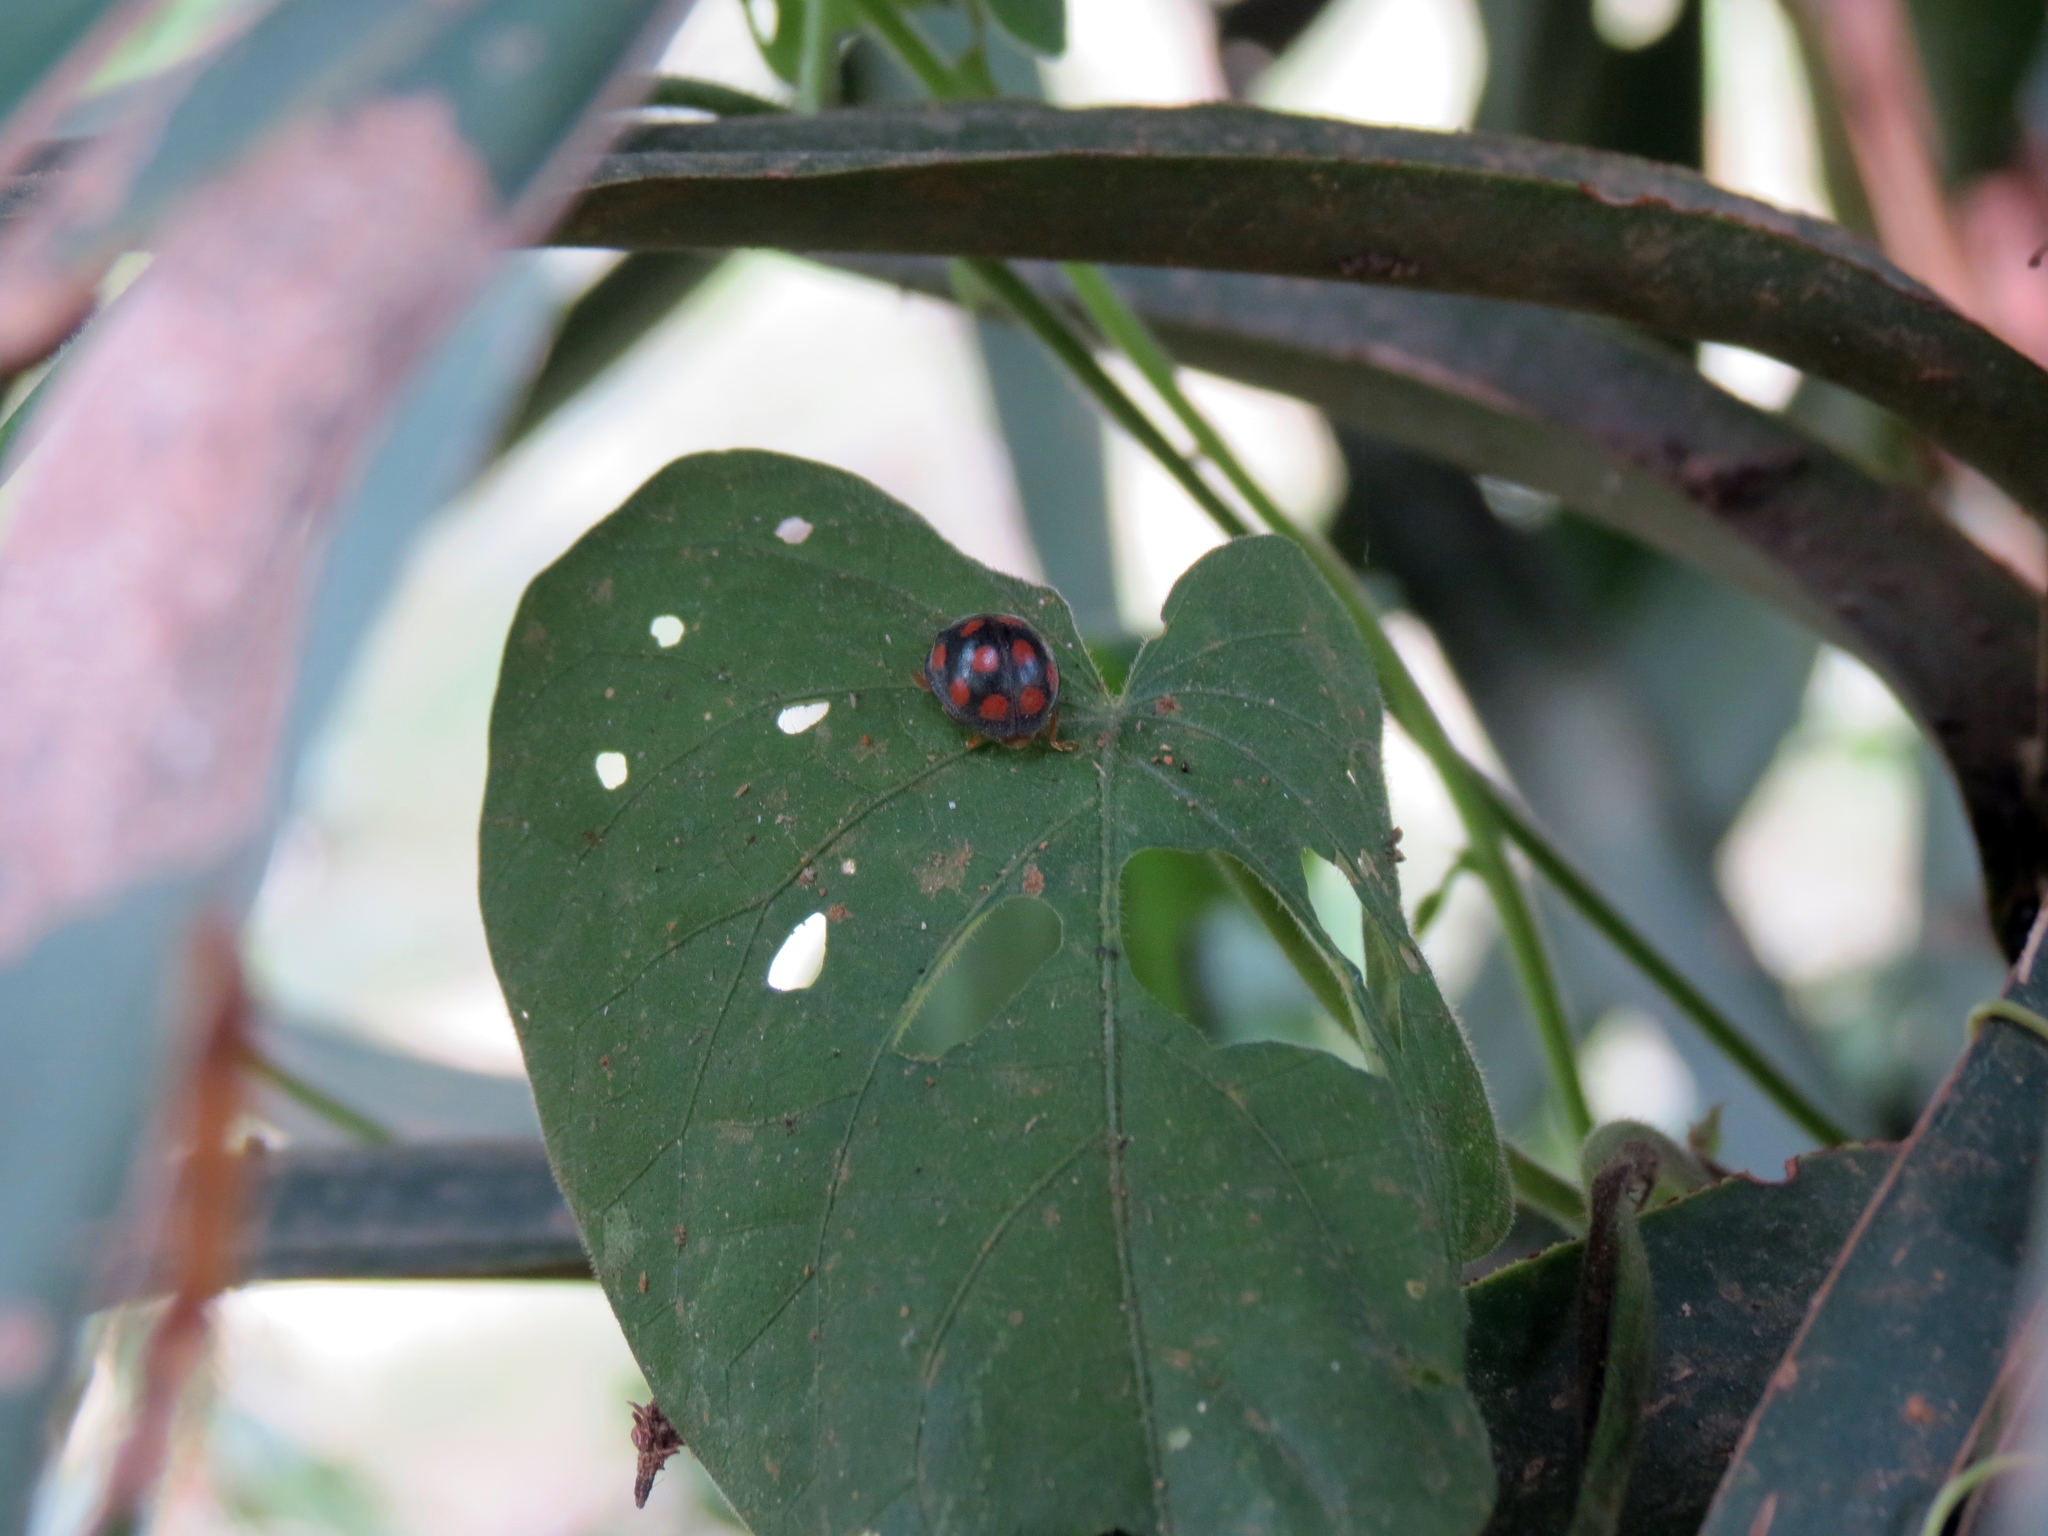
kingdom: Animalia
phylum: Arthropoda
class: Insecta
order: Coleoptera
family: Coccinellidae
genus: Epilachna
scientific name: Epilachna
